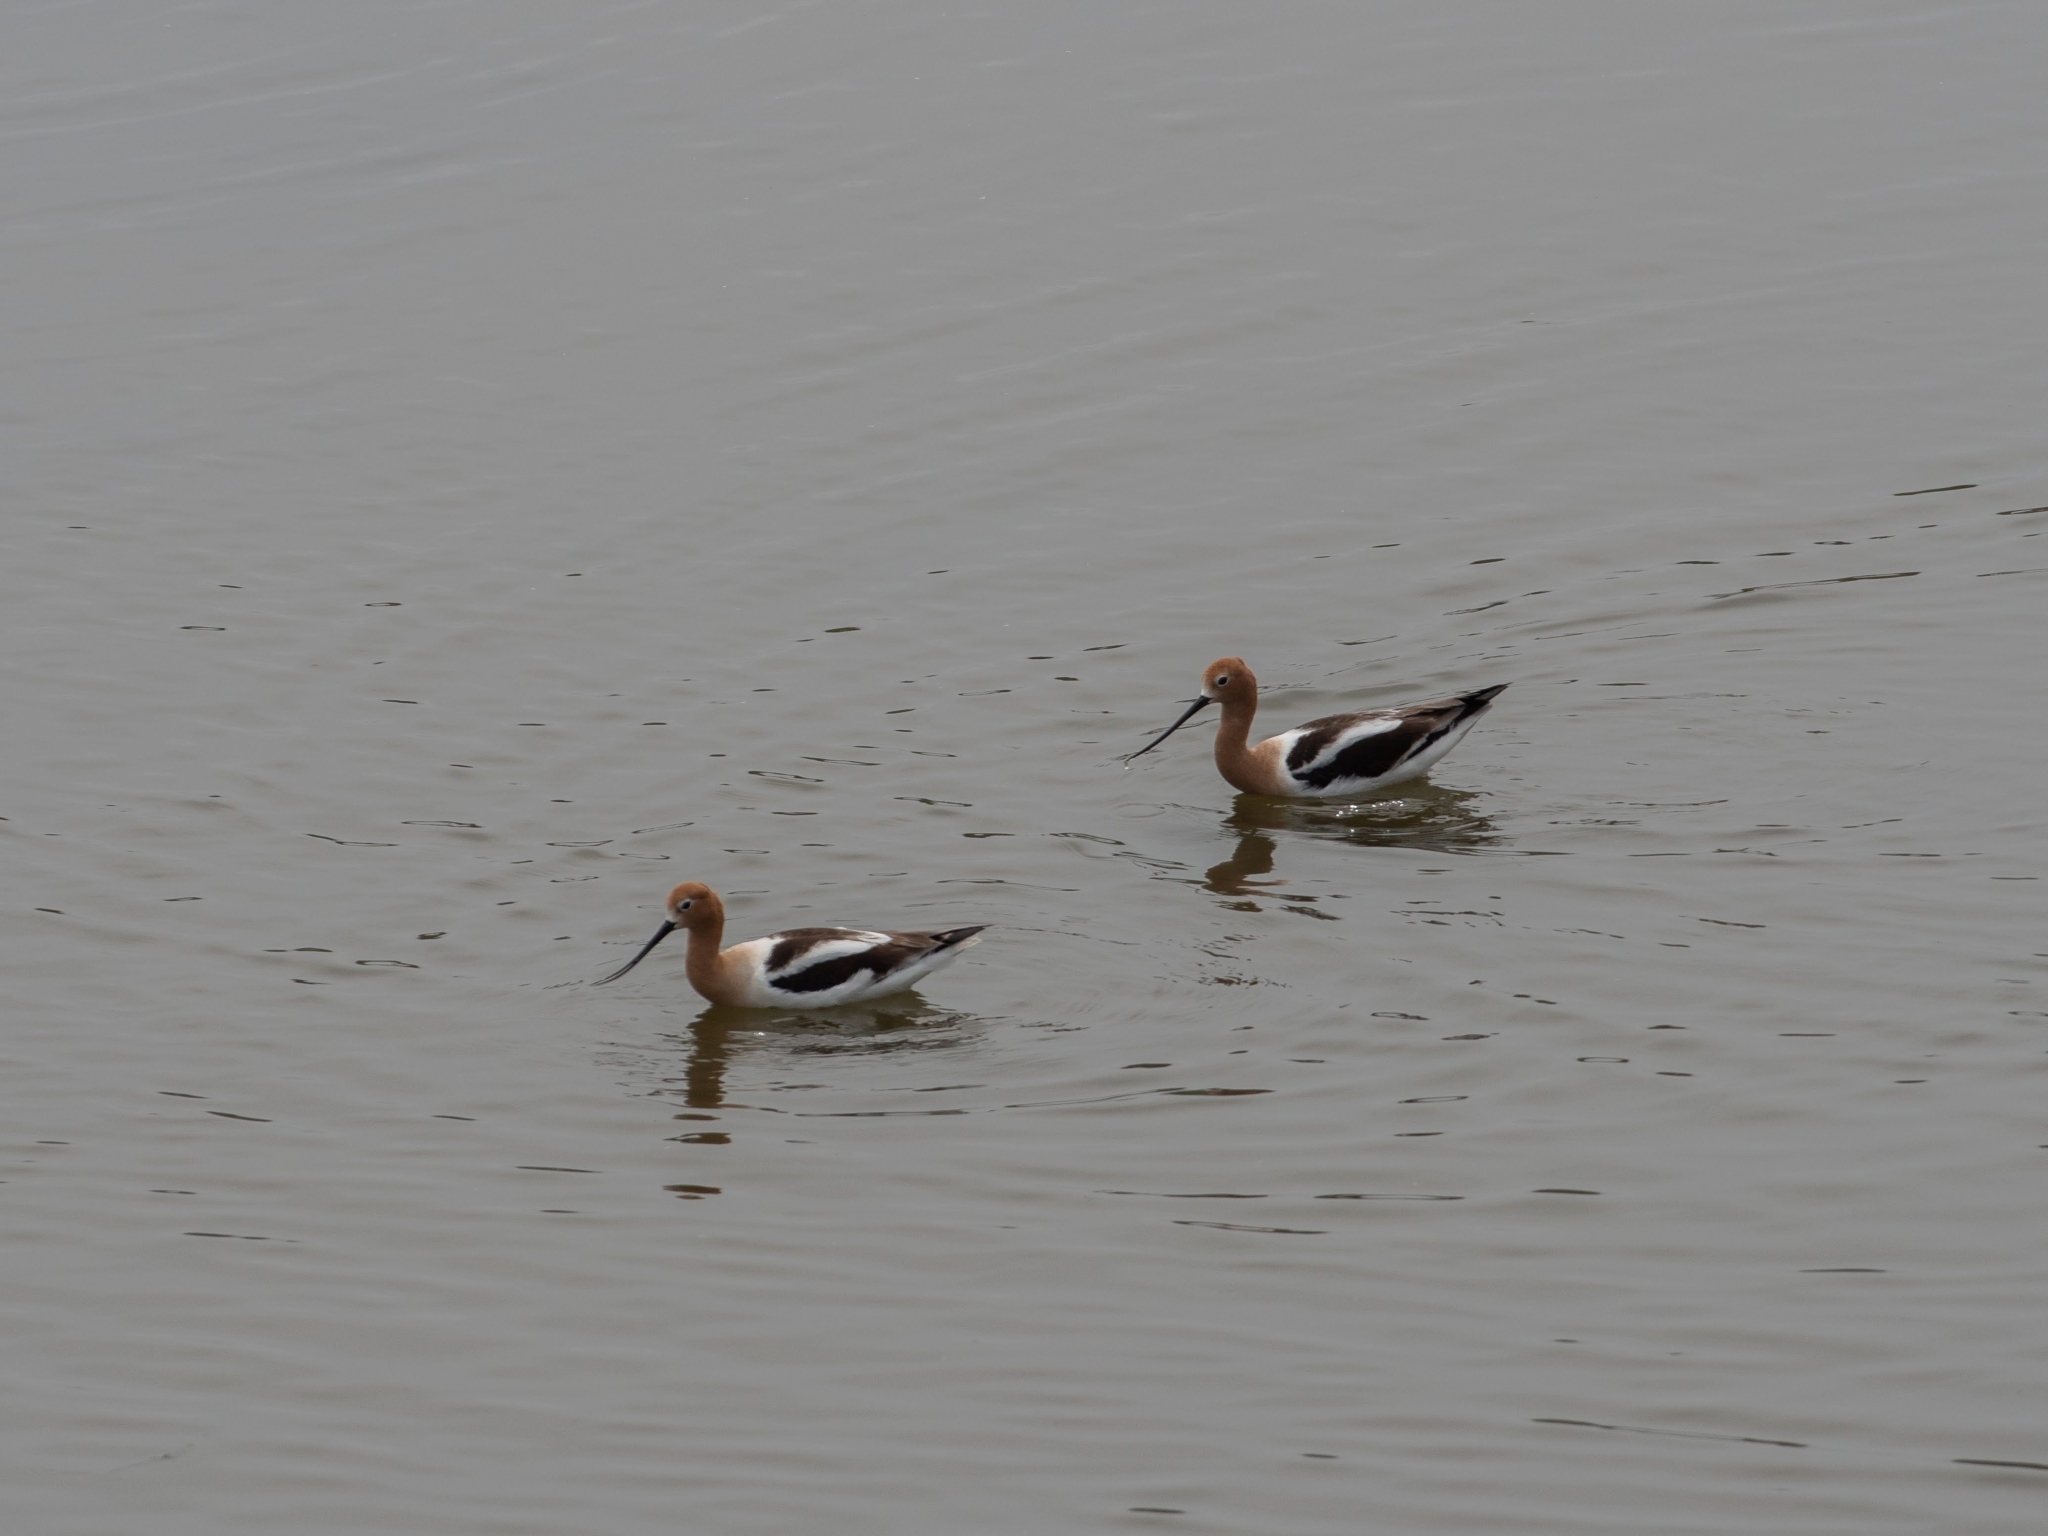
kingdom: Animalia
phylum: Chordata
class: Aves
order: Charadriiformes
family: Recurvirostridae
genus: Recurvirostra
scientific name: Recurvirostra americana
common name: American avocet
